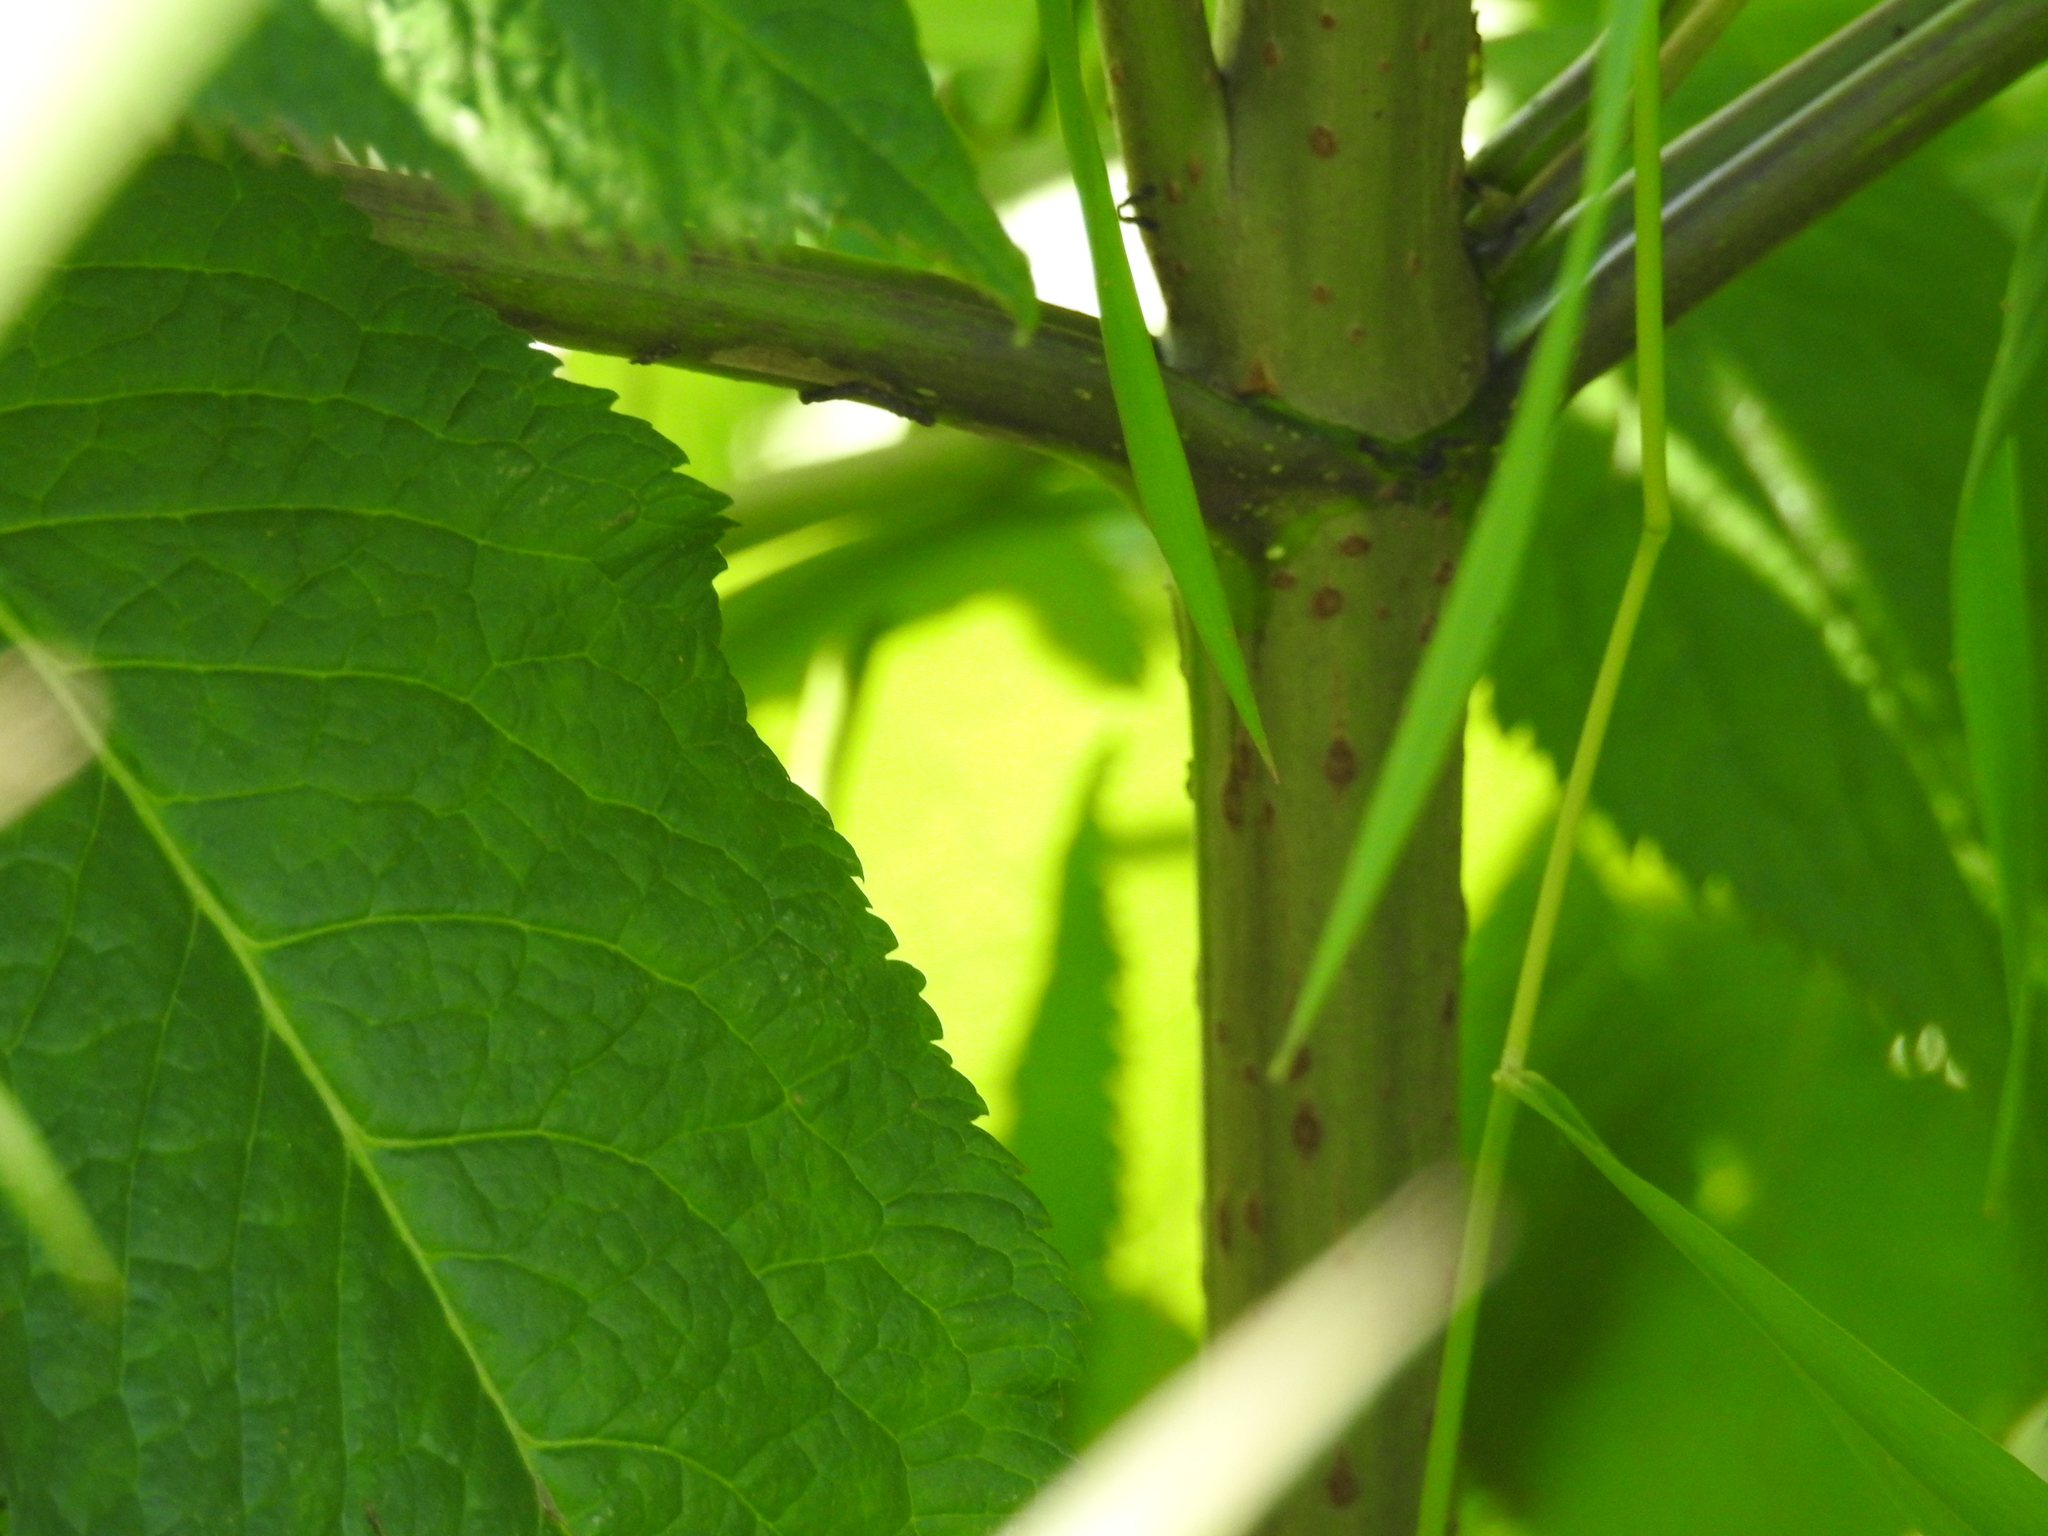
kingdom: Plantae
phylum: Tracheophyta
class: Magnoliopsida
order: Dipsacales
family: Viburnaceae
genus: Sambucus
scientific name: Sambucus racemosa
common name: Red-berried elder
